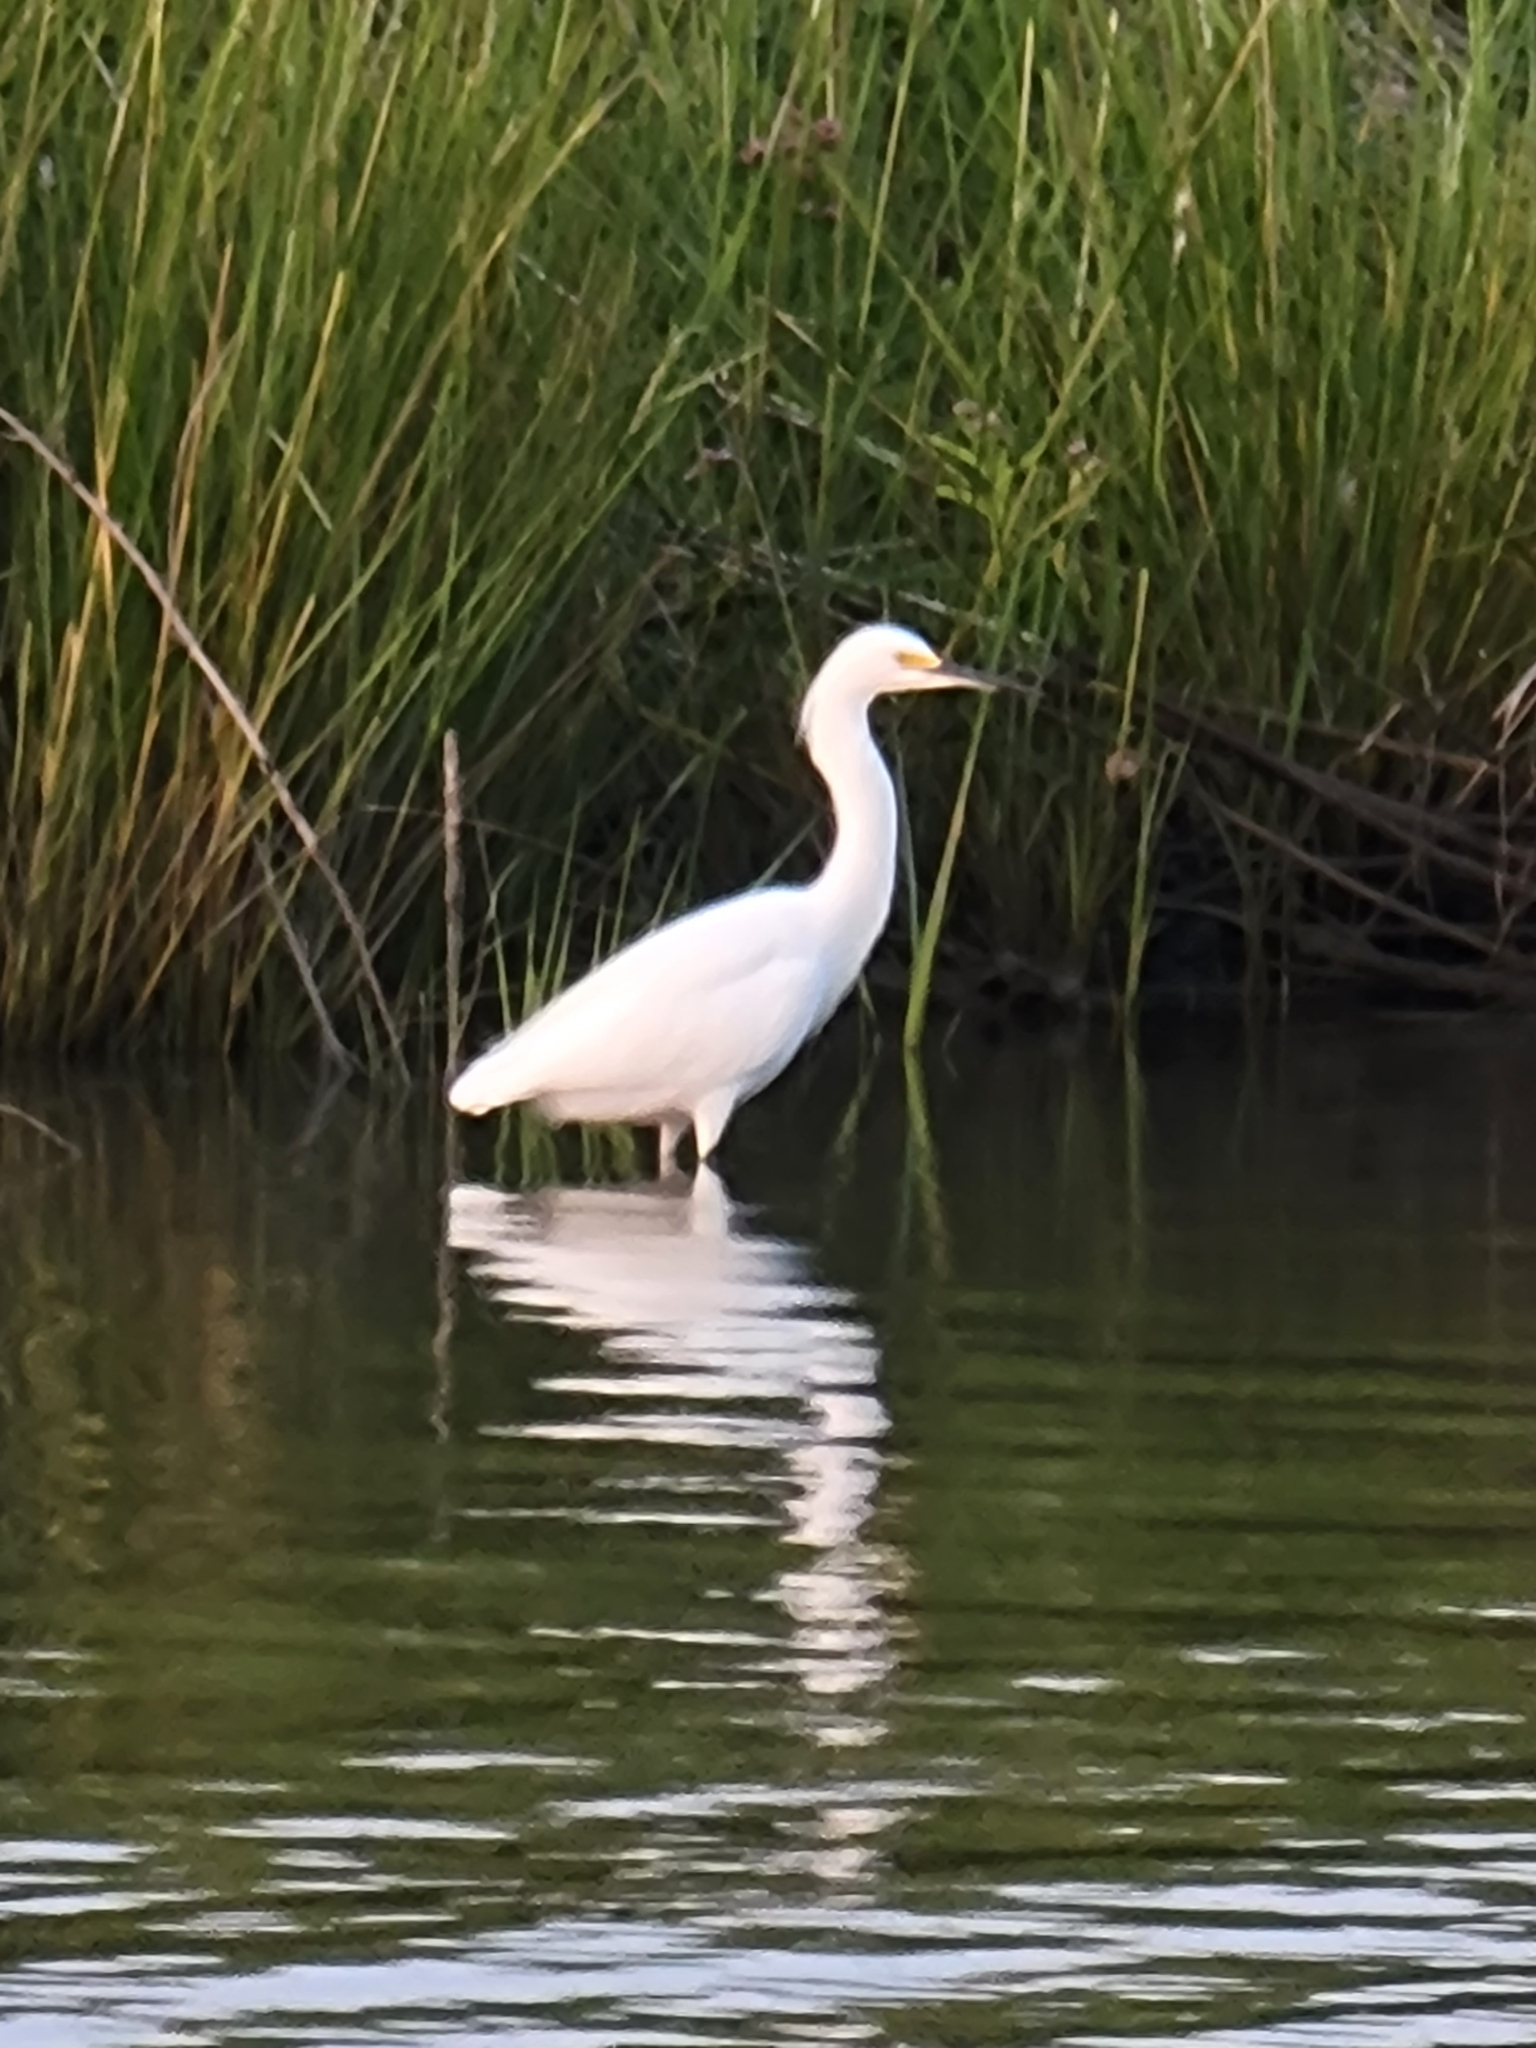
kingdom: Animalia
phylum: Chordata
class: Aves
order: Pelecaniformes
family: Ardeidae
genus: Egretta
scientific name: Egretta thula
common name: Snowy egret
